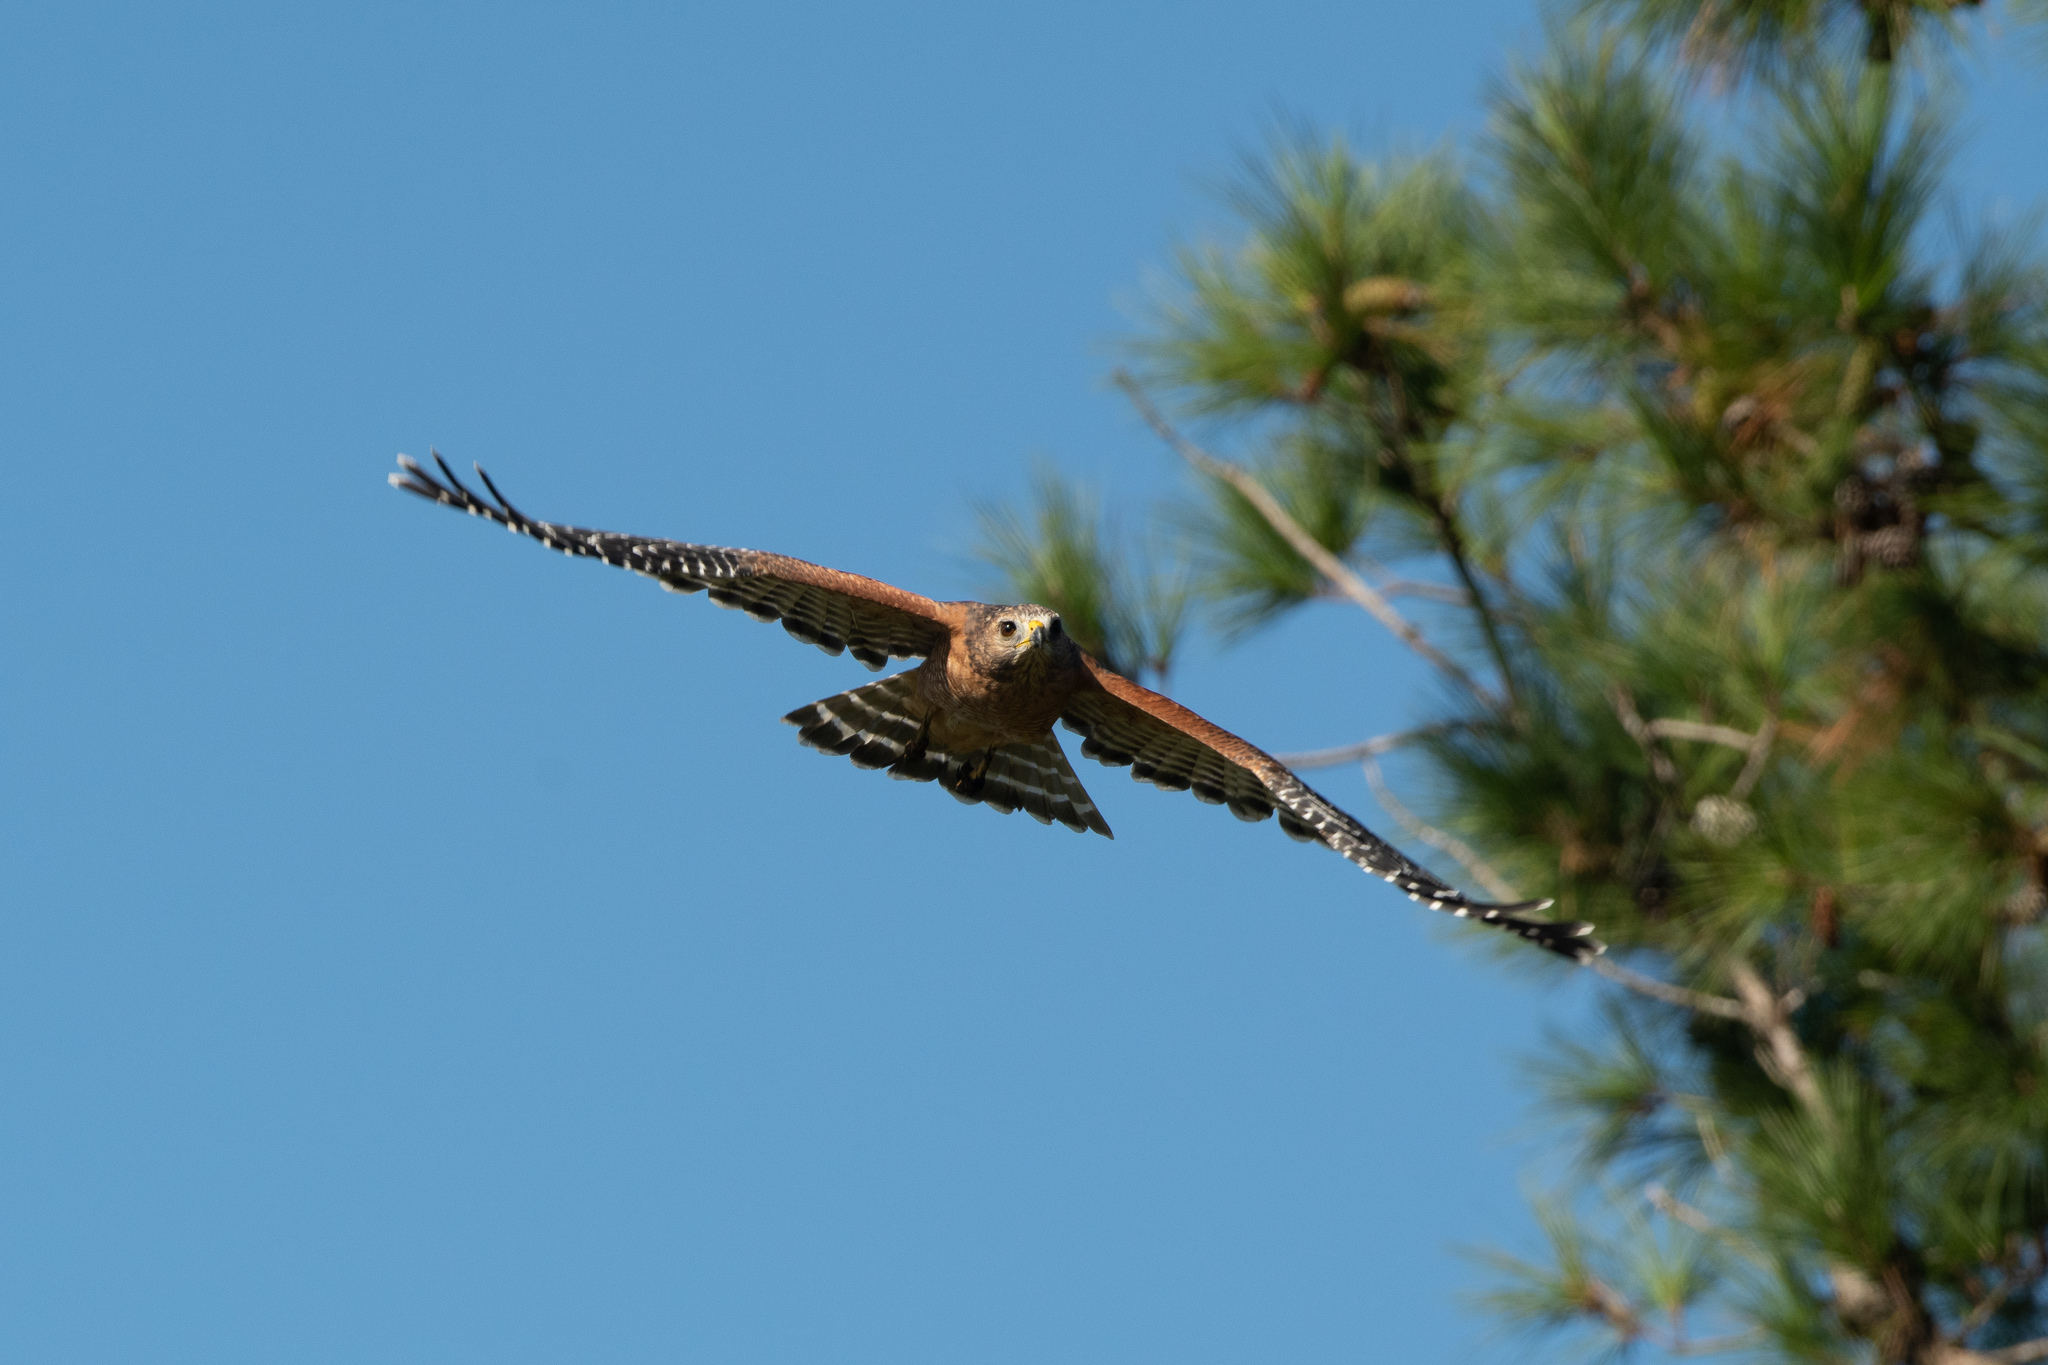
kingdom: Animalia
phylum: Chordata
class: Aves
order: Accipitriformes
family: Accipitridae
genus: Buteo
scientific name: Buteo lineatus
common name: Red-shouldered hawk
